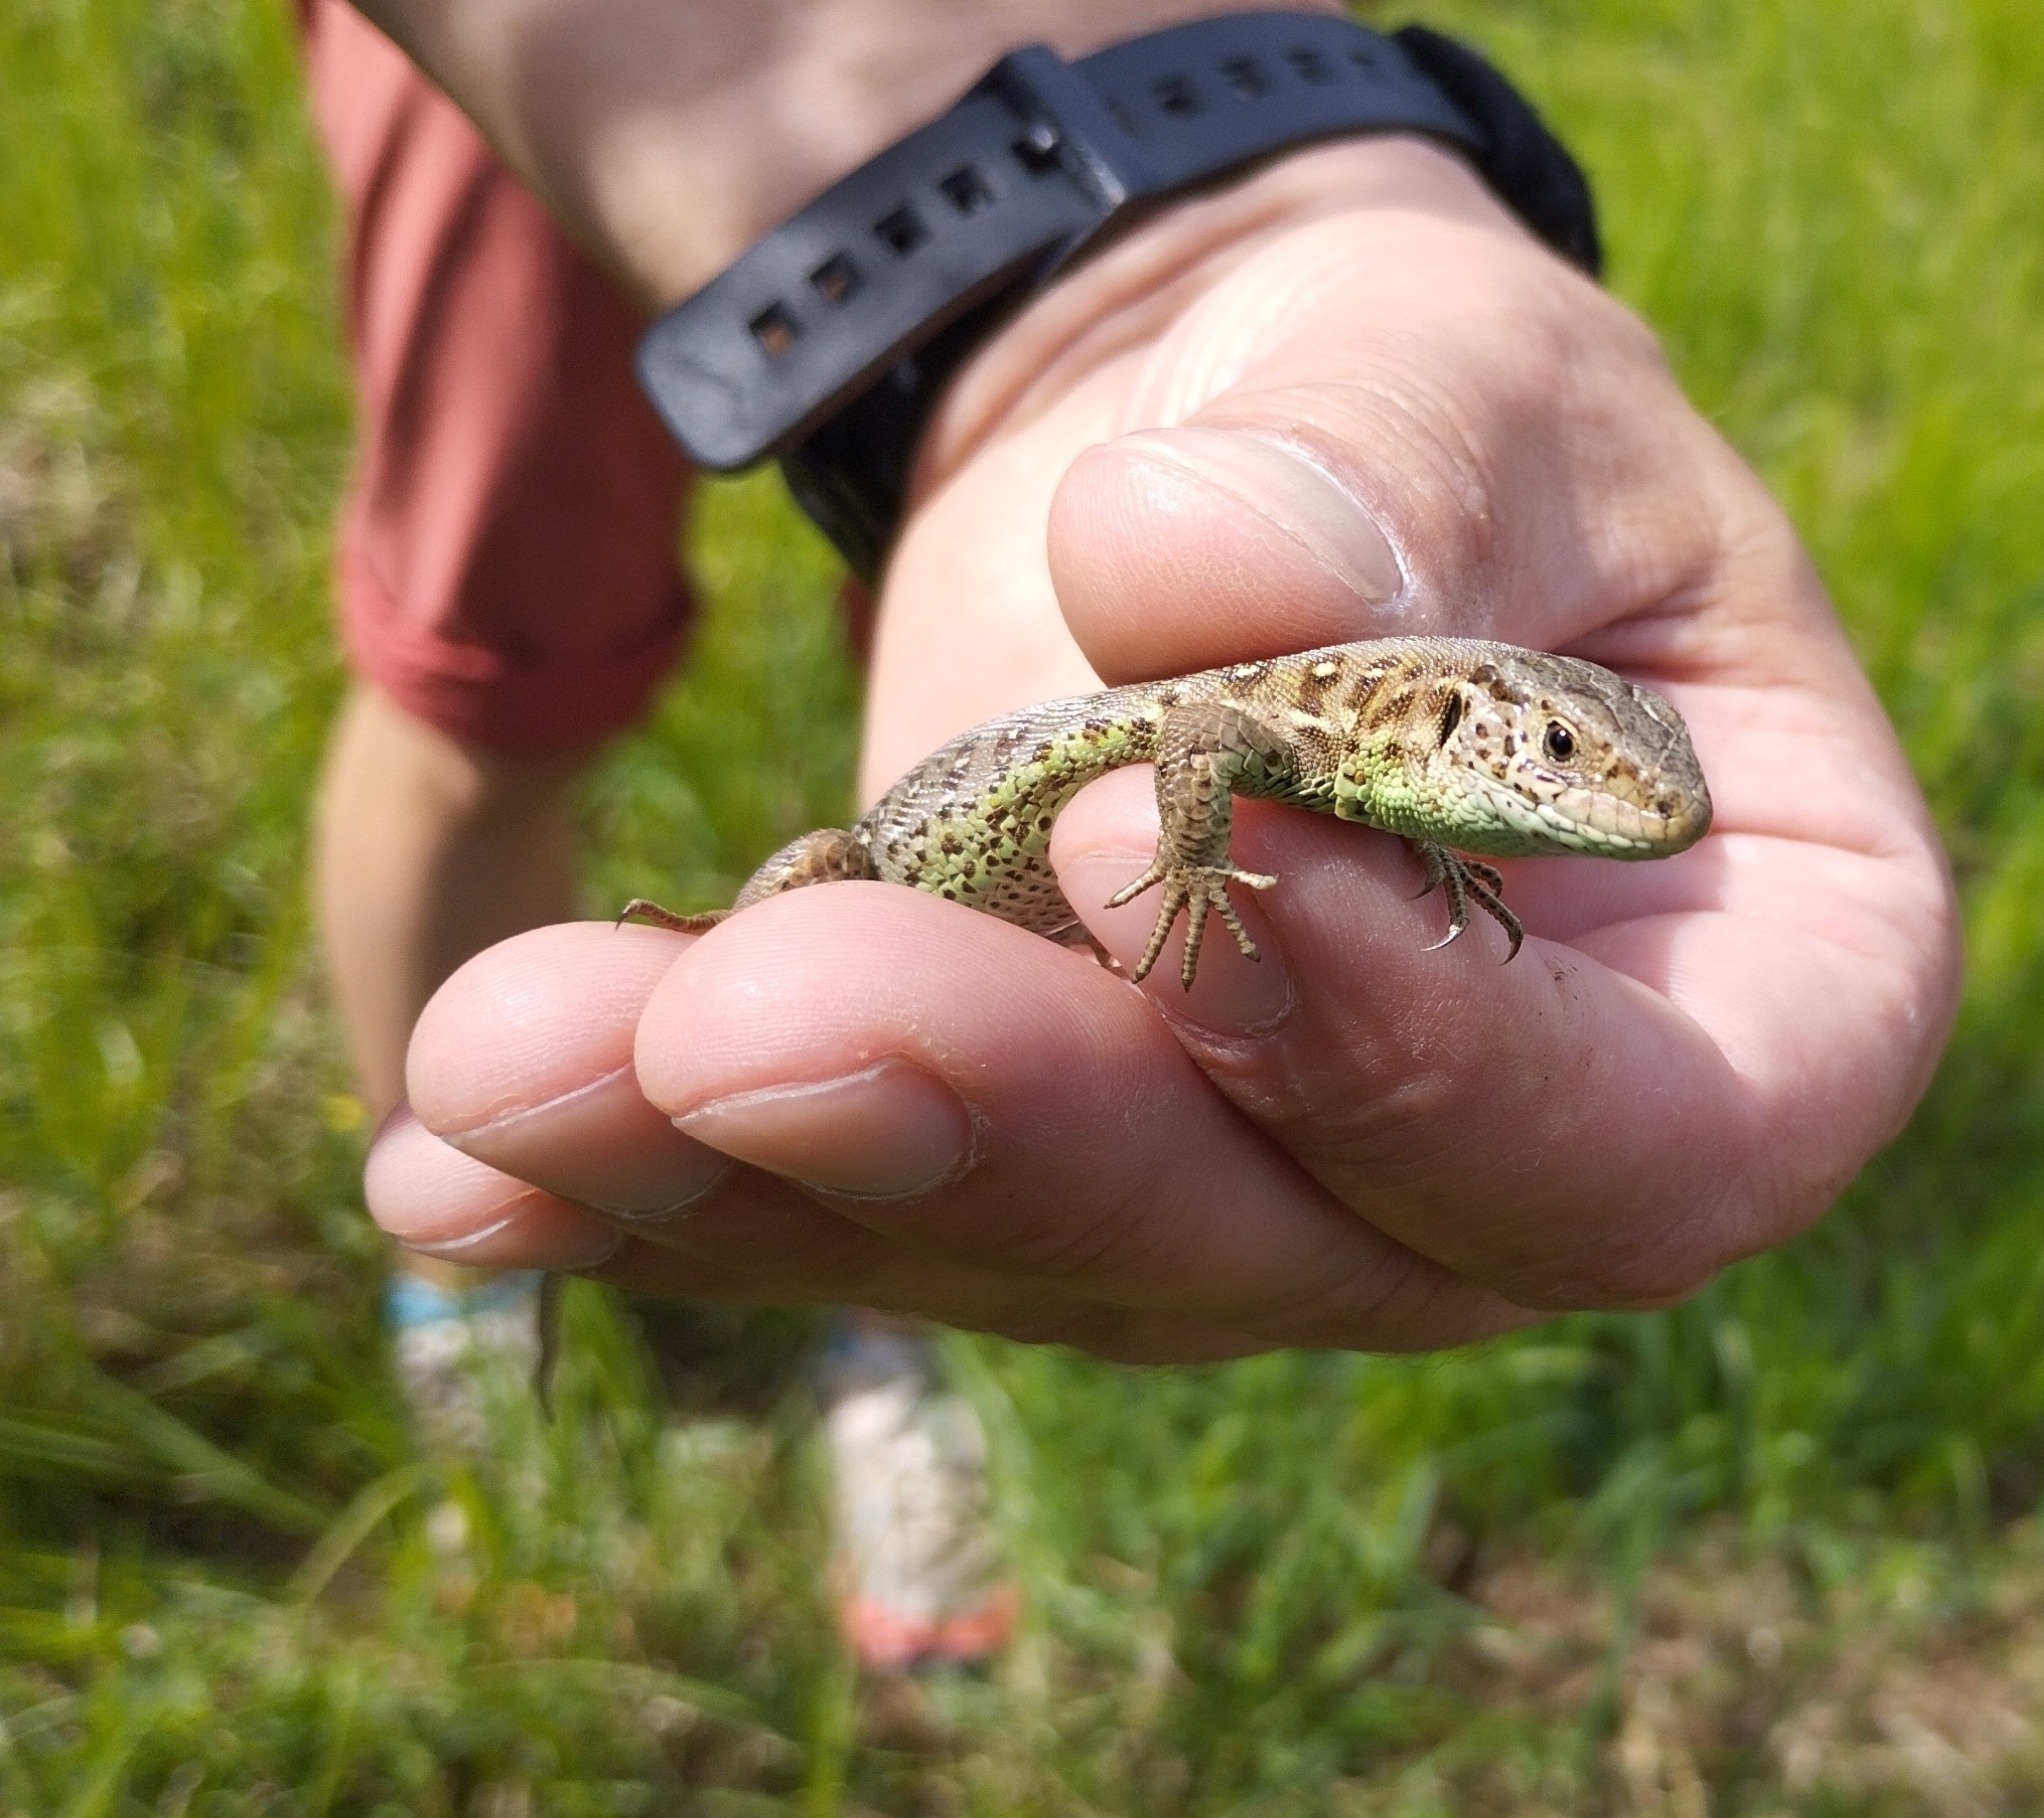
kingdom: Animalia
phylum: Chordata
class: Squamata
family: Lacertidae
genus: Lacerta
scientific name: Lacerta agilis
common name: Sand lizard
